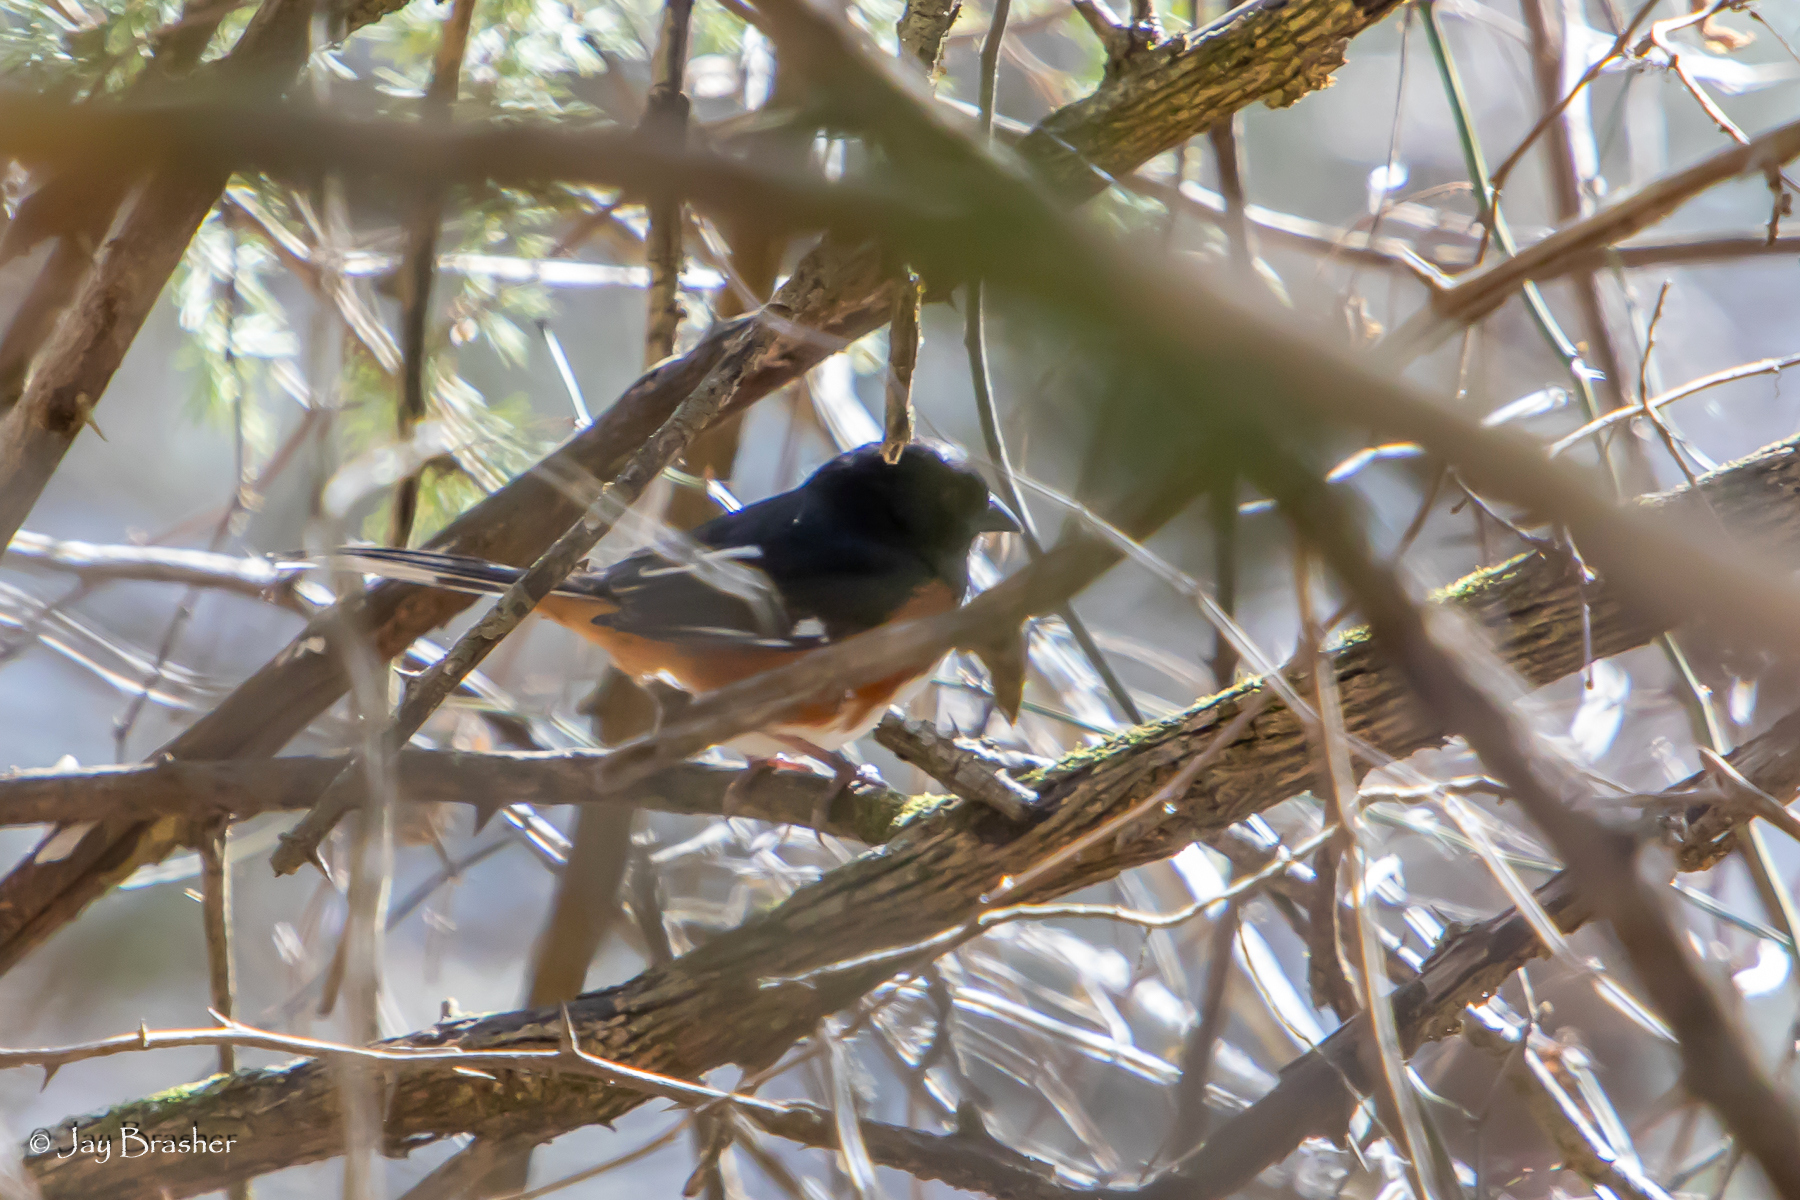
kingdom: Animalia
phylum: Chordata
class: Aves
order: Passeriformes
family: Passerellidae
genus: Pipilo
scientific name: Pipilo erythrophthalmus
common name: Eastern towhee
